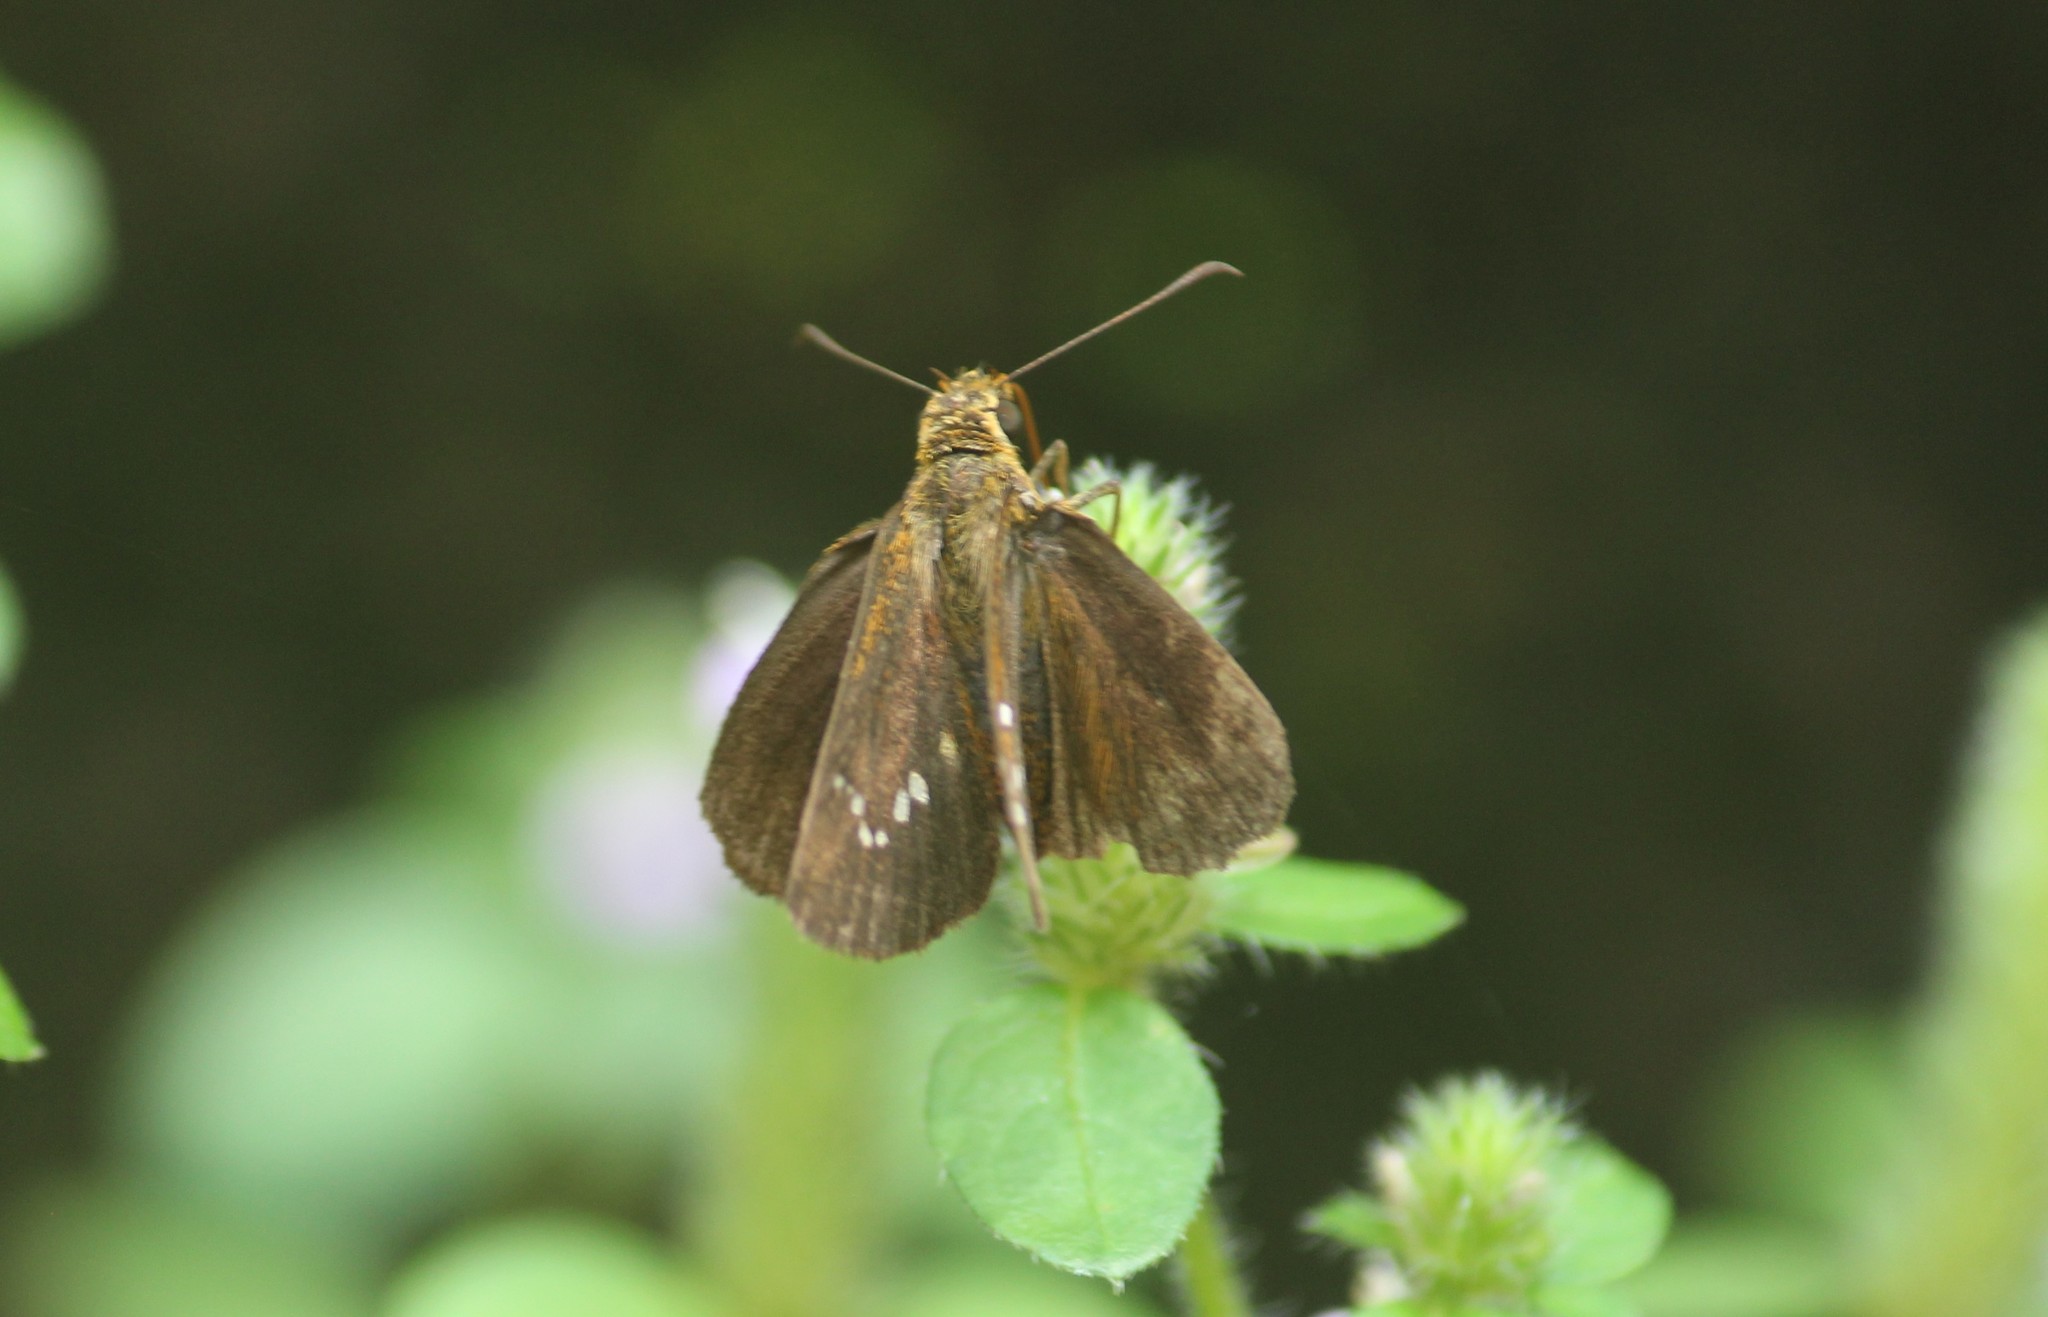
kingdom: Animalia
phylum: Arthropoda
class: Insecta
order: Lepidoptera
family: Hesperiidae
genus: Iambrix
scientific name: Iambrix salsala
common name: Chestnut bob
